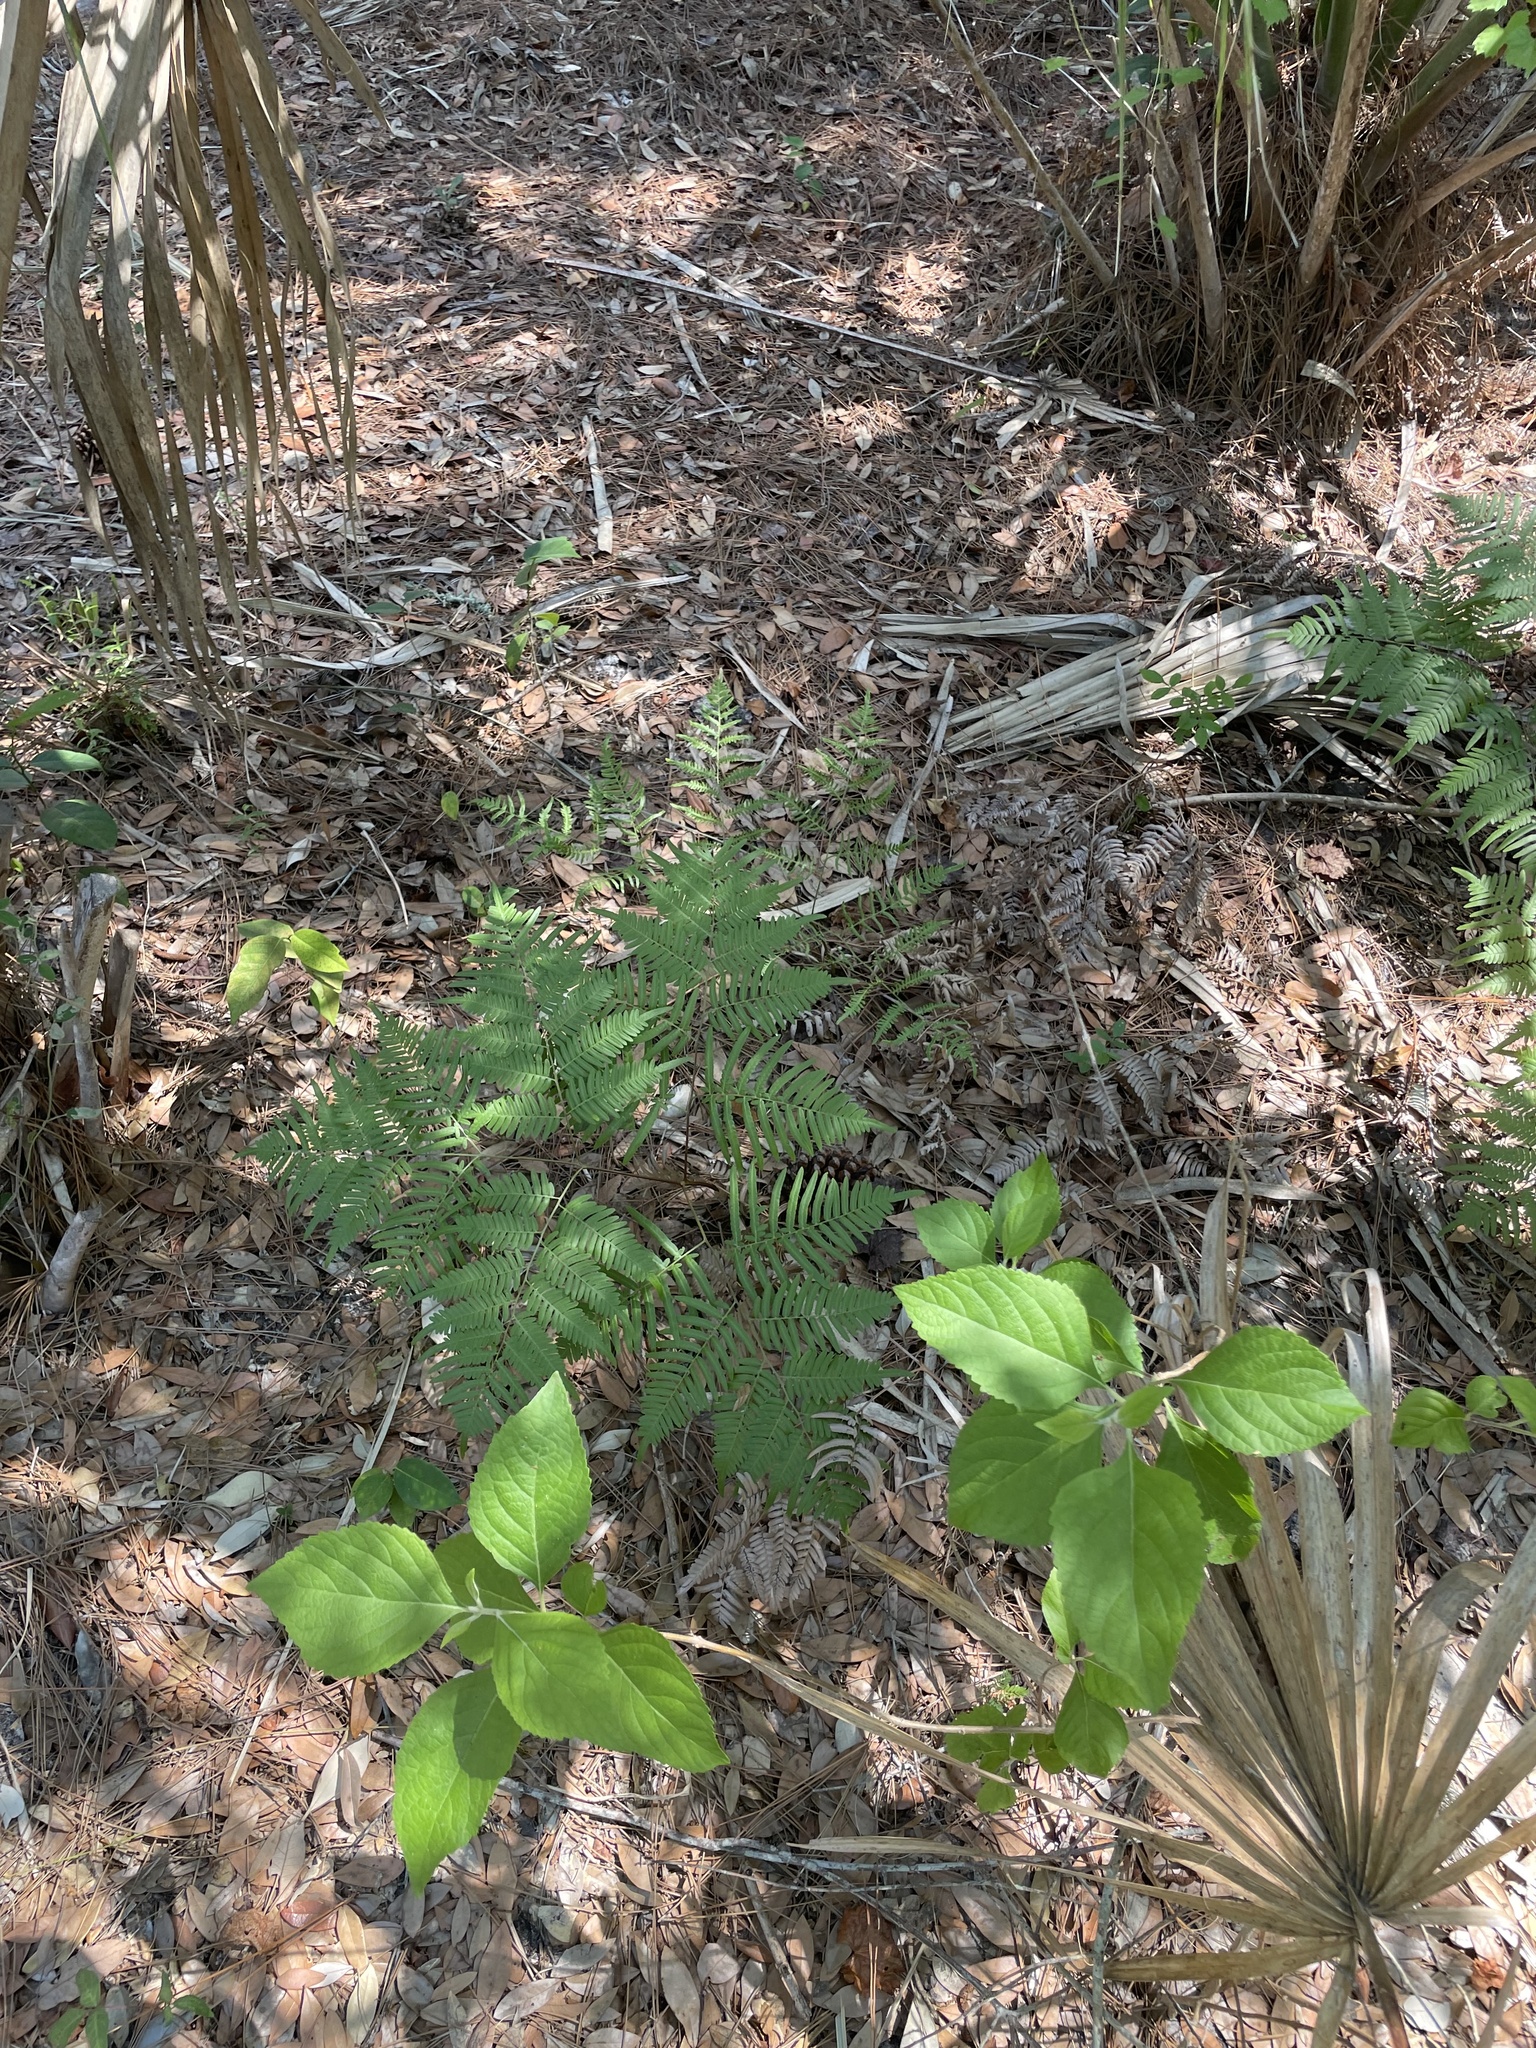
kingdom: Plantae
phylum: Tracheophyta
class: Polypodiopsida
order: Polypodiales
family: Dennstaedtiaceae
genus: Pteridium
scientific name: Pteridium caudatum
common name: Southern bracken fern
